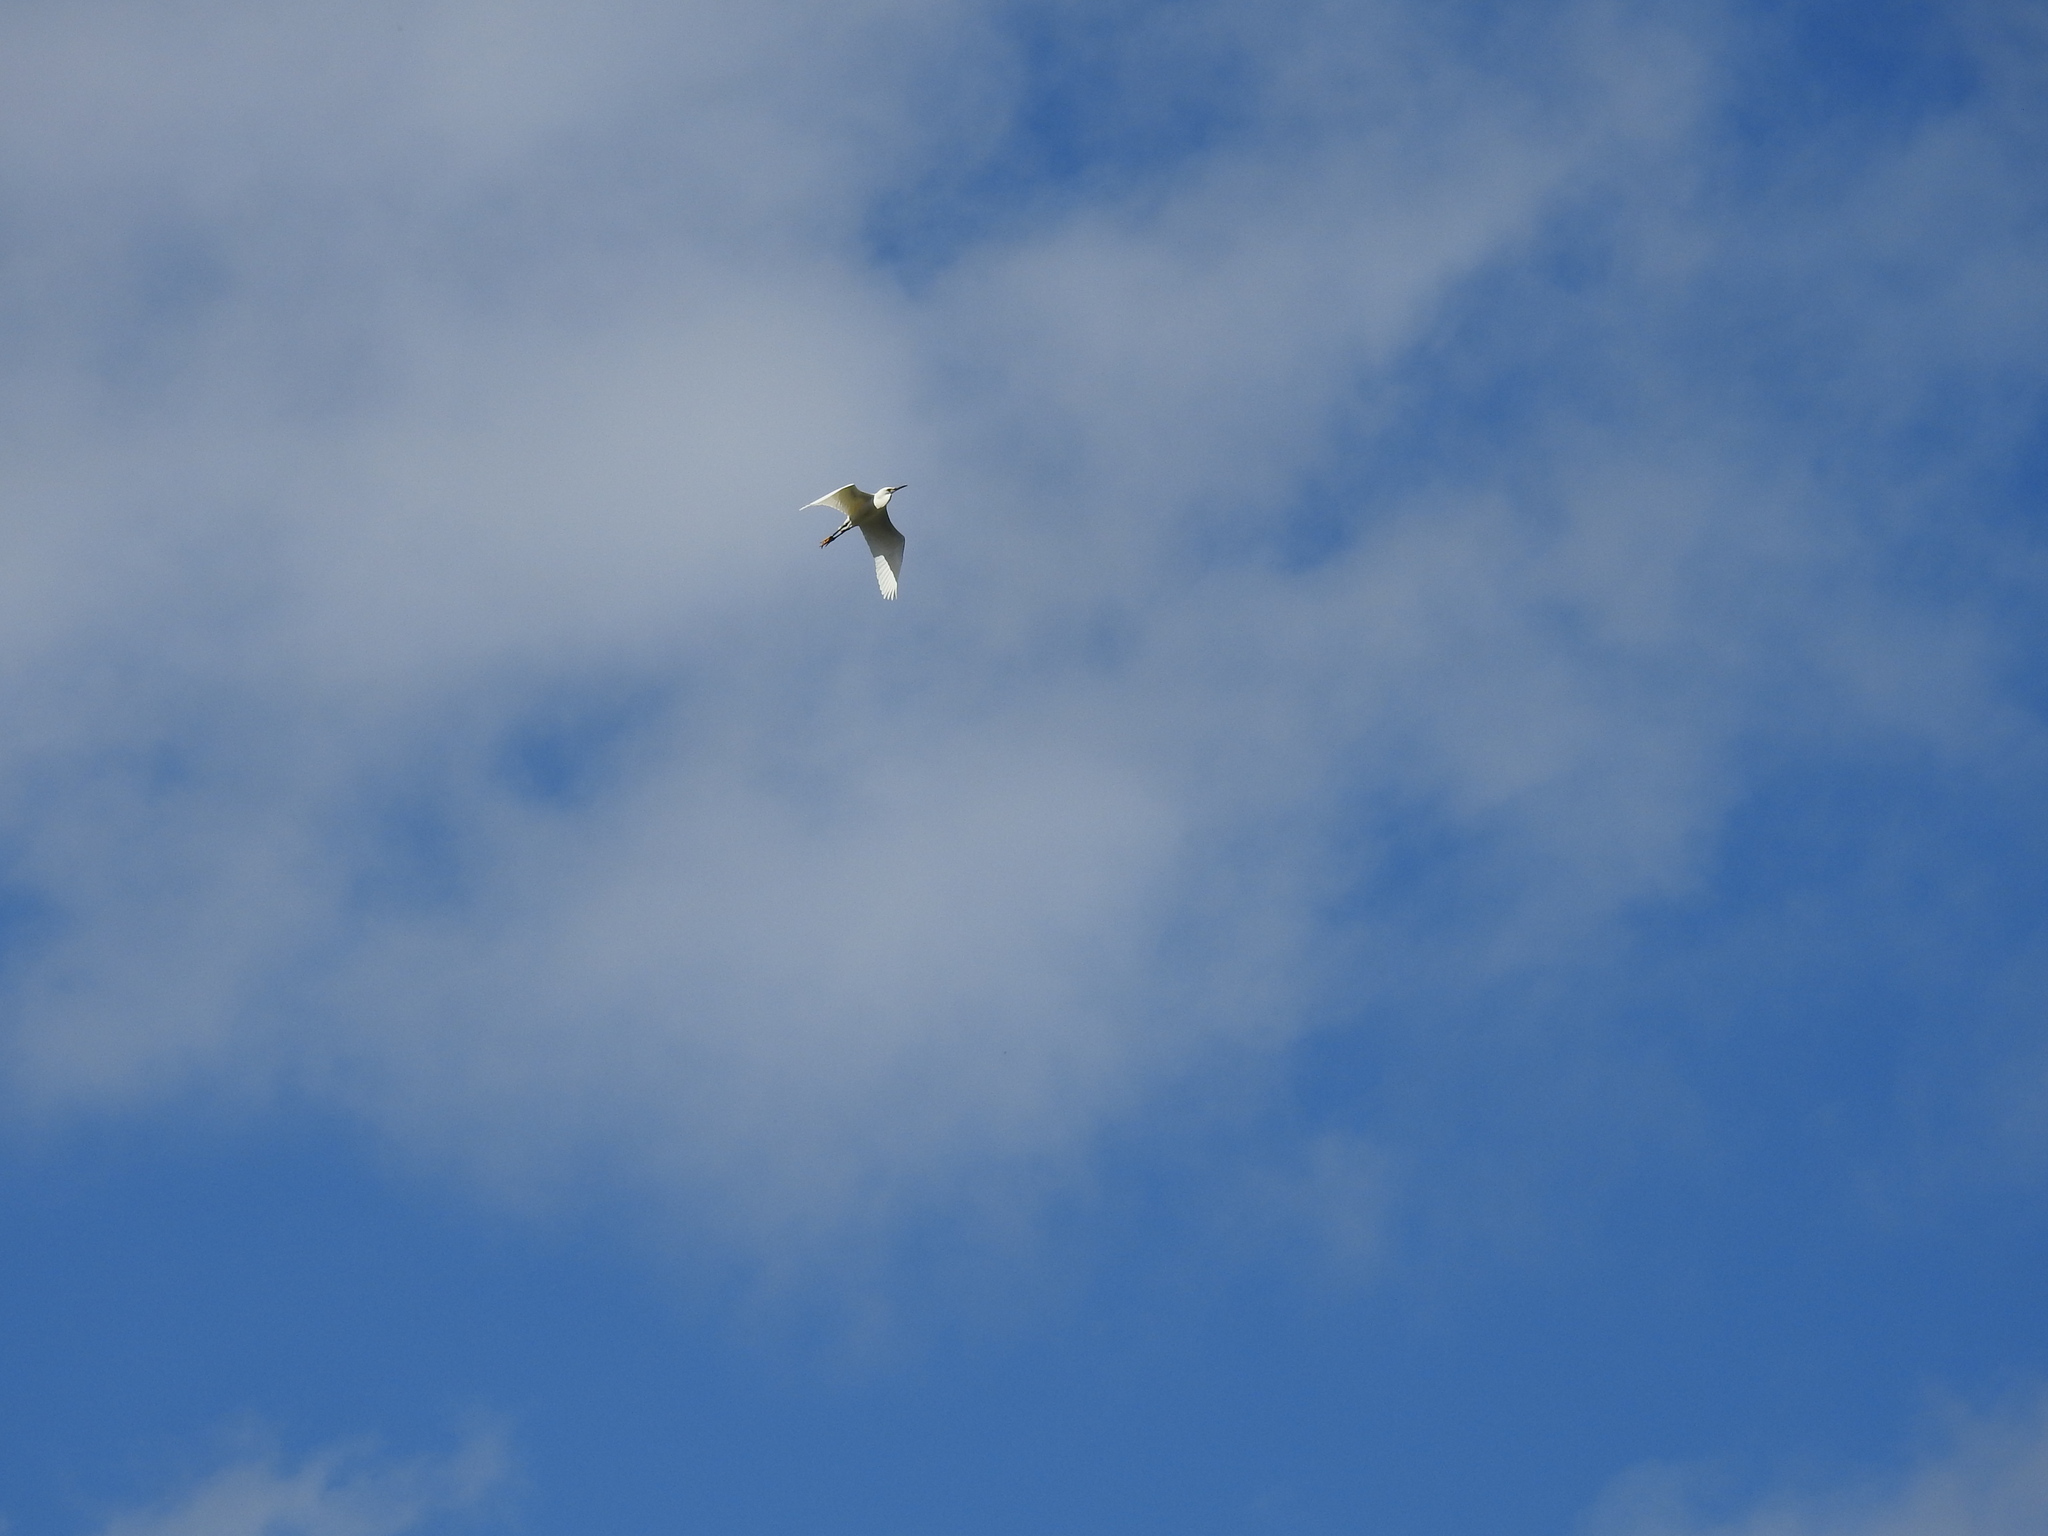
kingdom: Animalia
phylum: Chordata
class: Aves
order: Pelecaniformes
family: Ardeidae
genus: Egretta
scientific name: Egretta thula
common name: Snowy egret
